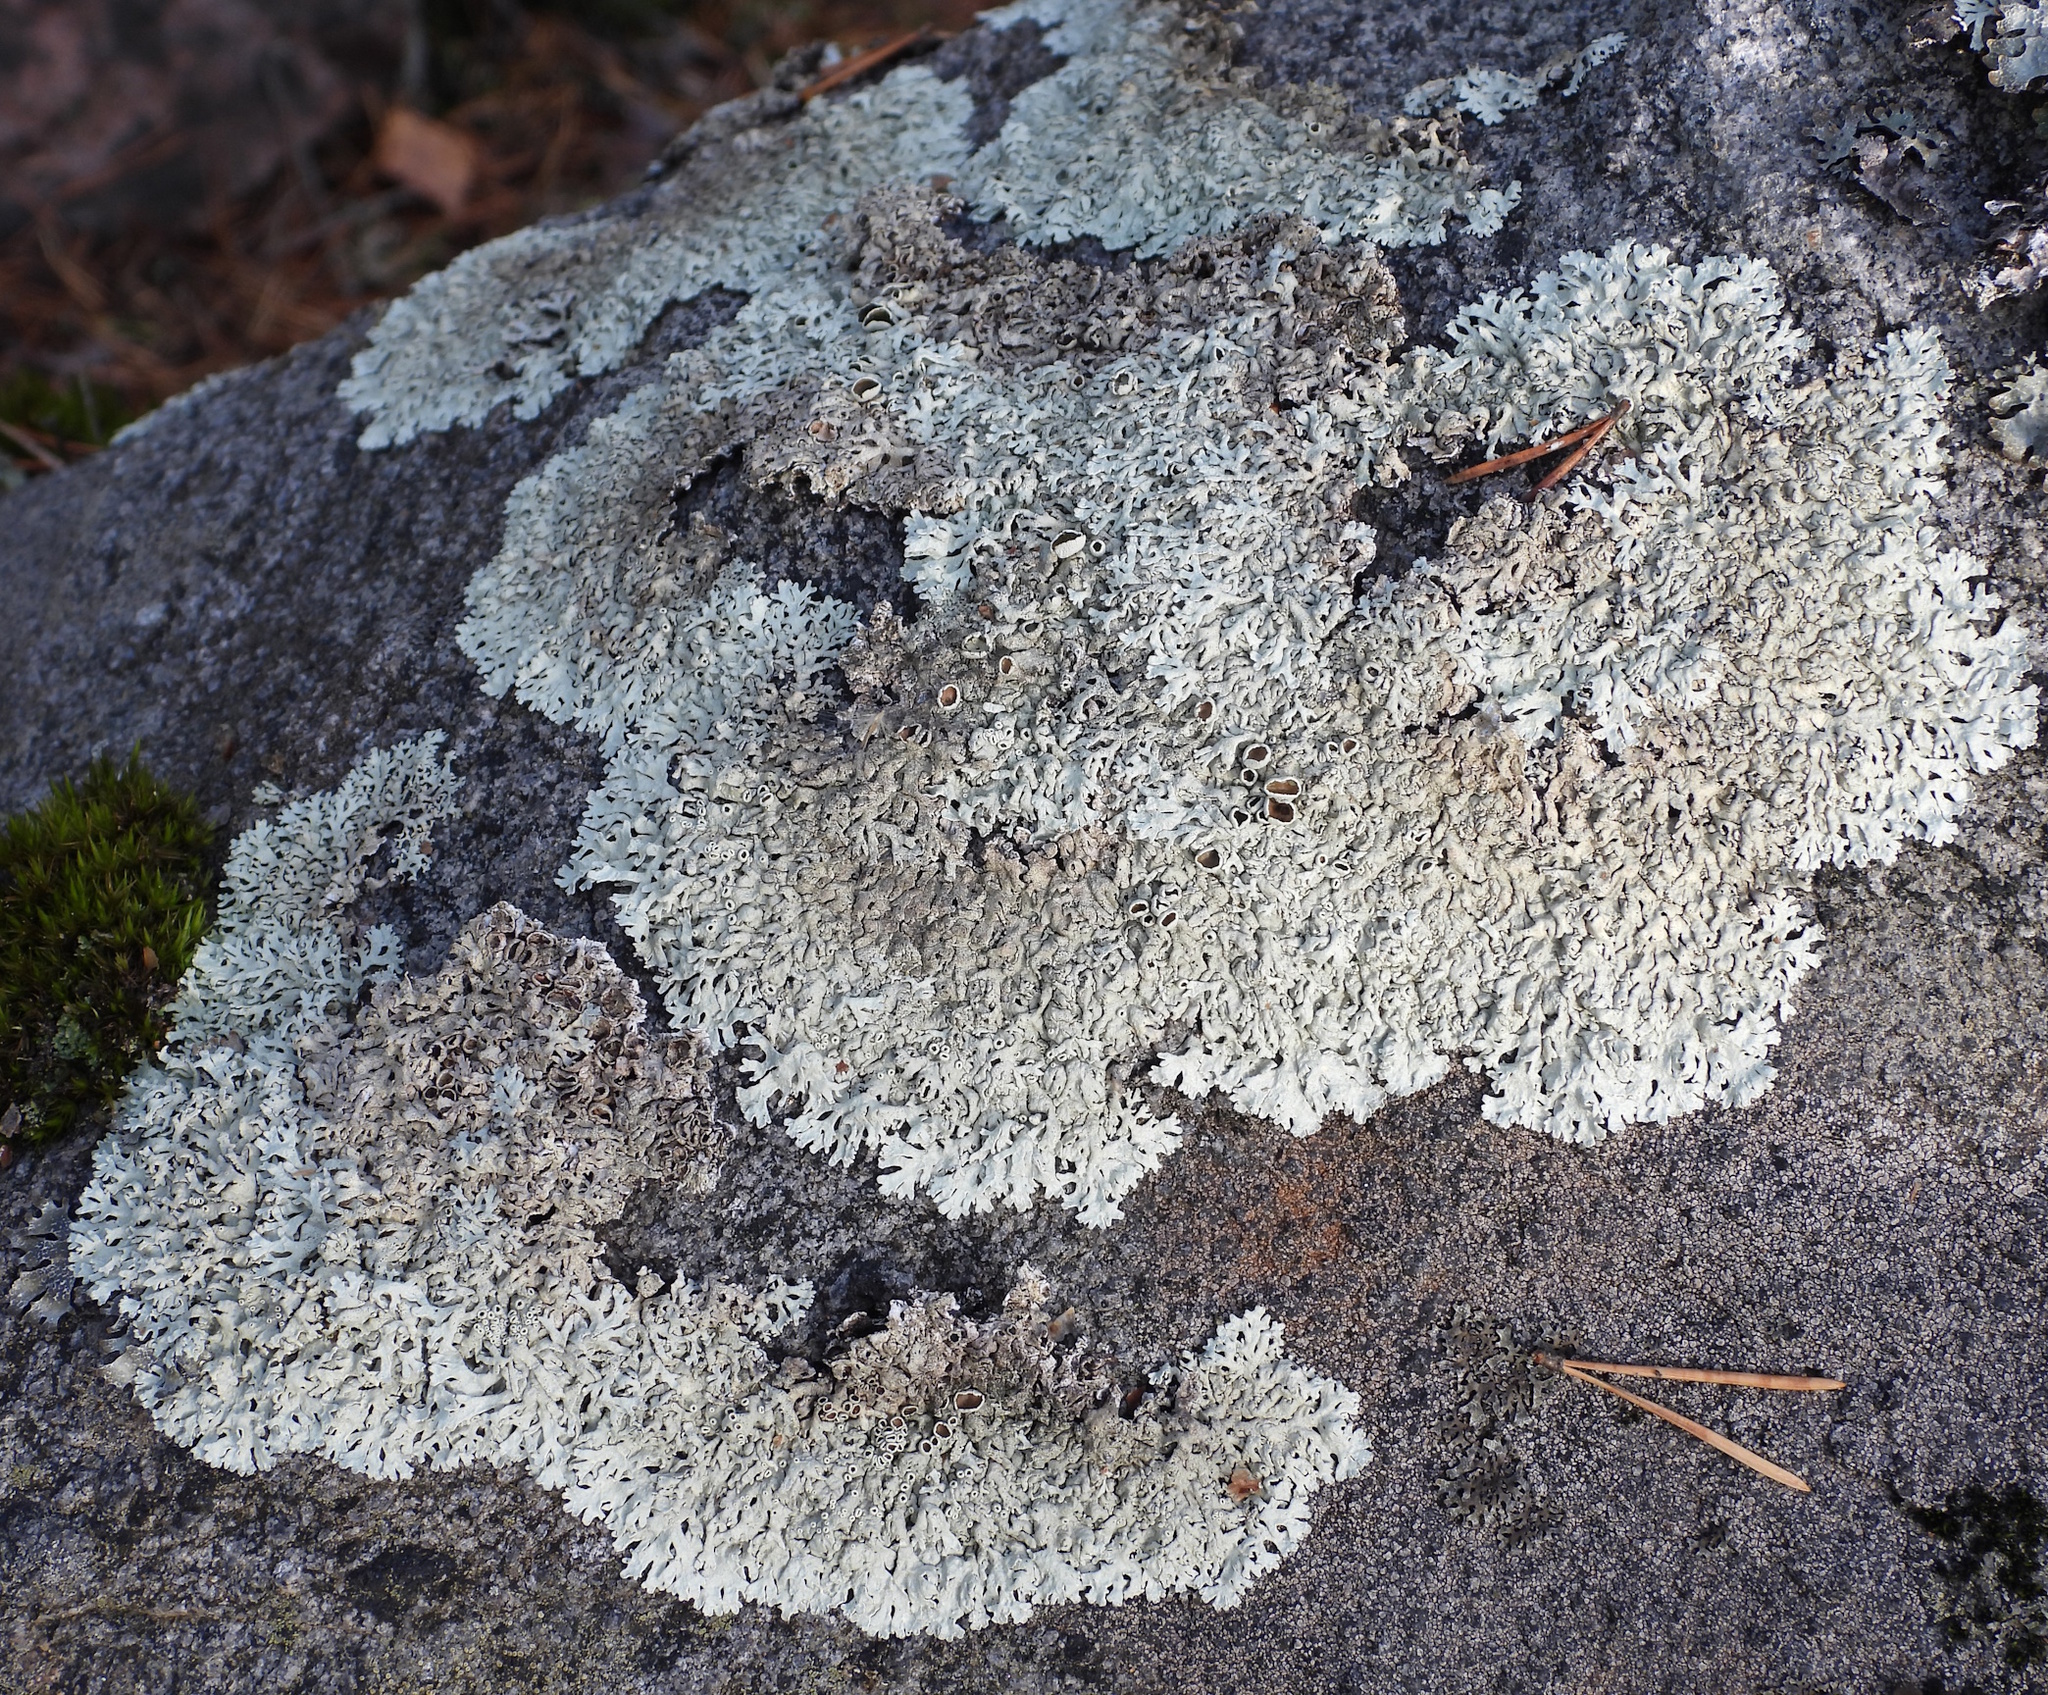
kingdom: Fungi
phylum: Ascomycota
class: Lecanoromycetes
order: Lecanorales
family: Parmeliaceae
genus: Arctoparmelia
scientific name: Arctoparmelia centrifuga
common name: Concentric ring lichen
